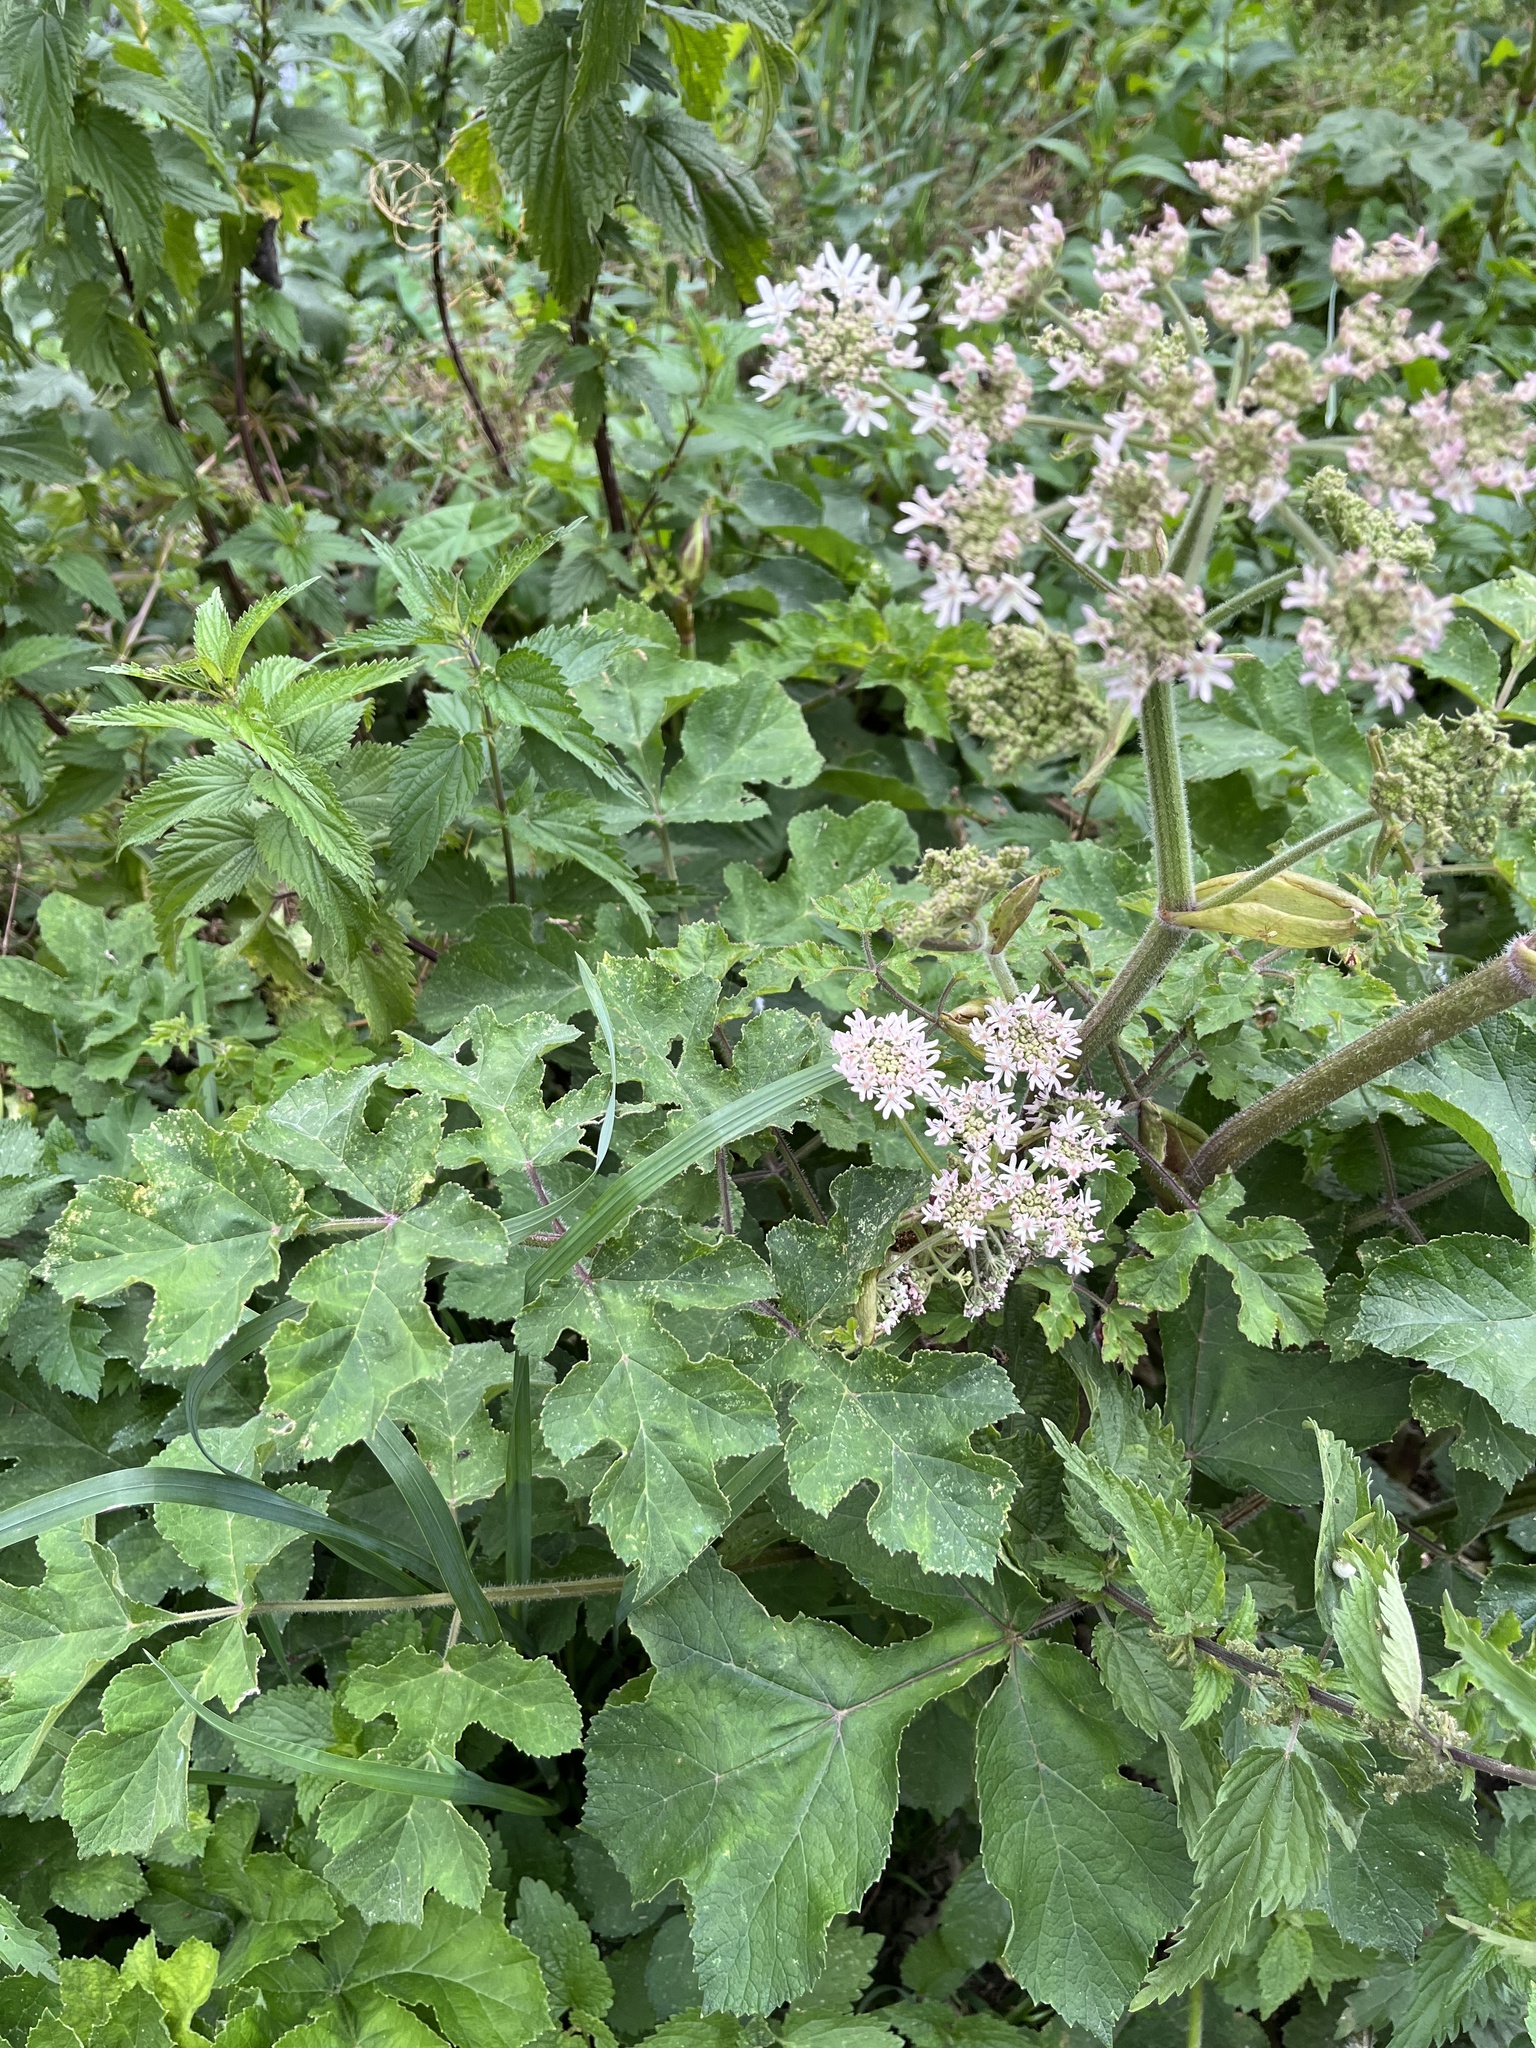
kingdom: Plantae
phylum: Tracheophyta
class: Magnoliopsida
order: Apiales
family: Apiaceae
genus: Heracleum
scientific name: Heracleum sphondylium
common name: Hogweed
